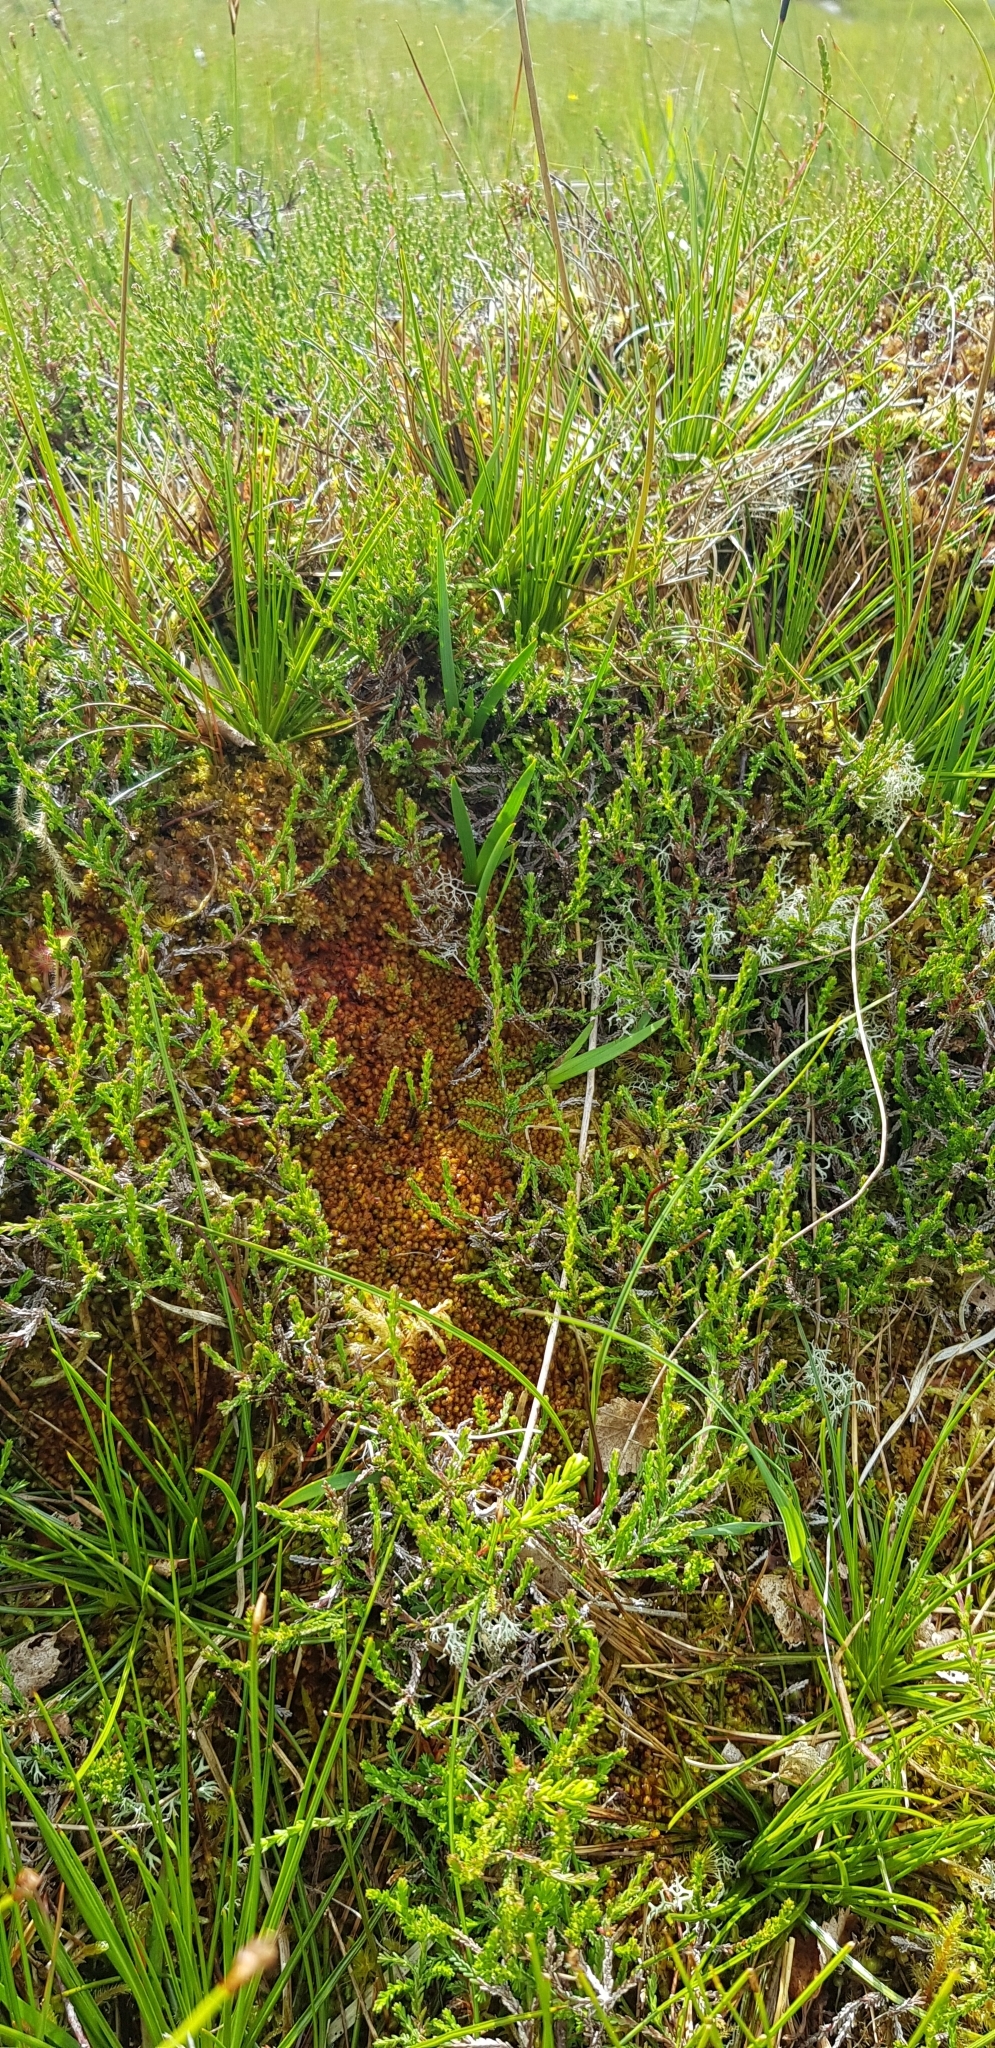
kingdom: Plantae
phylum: Marchantiophyta
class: Jungermanniopsida
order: Jungermanniales
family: Myliaceae
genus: Mylia
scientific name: Mylia taylorii
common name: Taylor s flapwort
